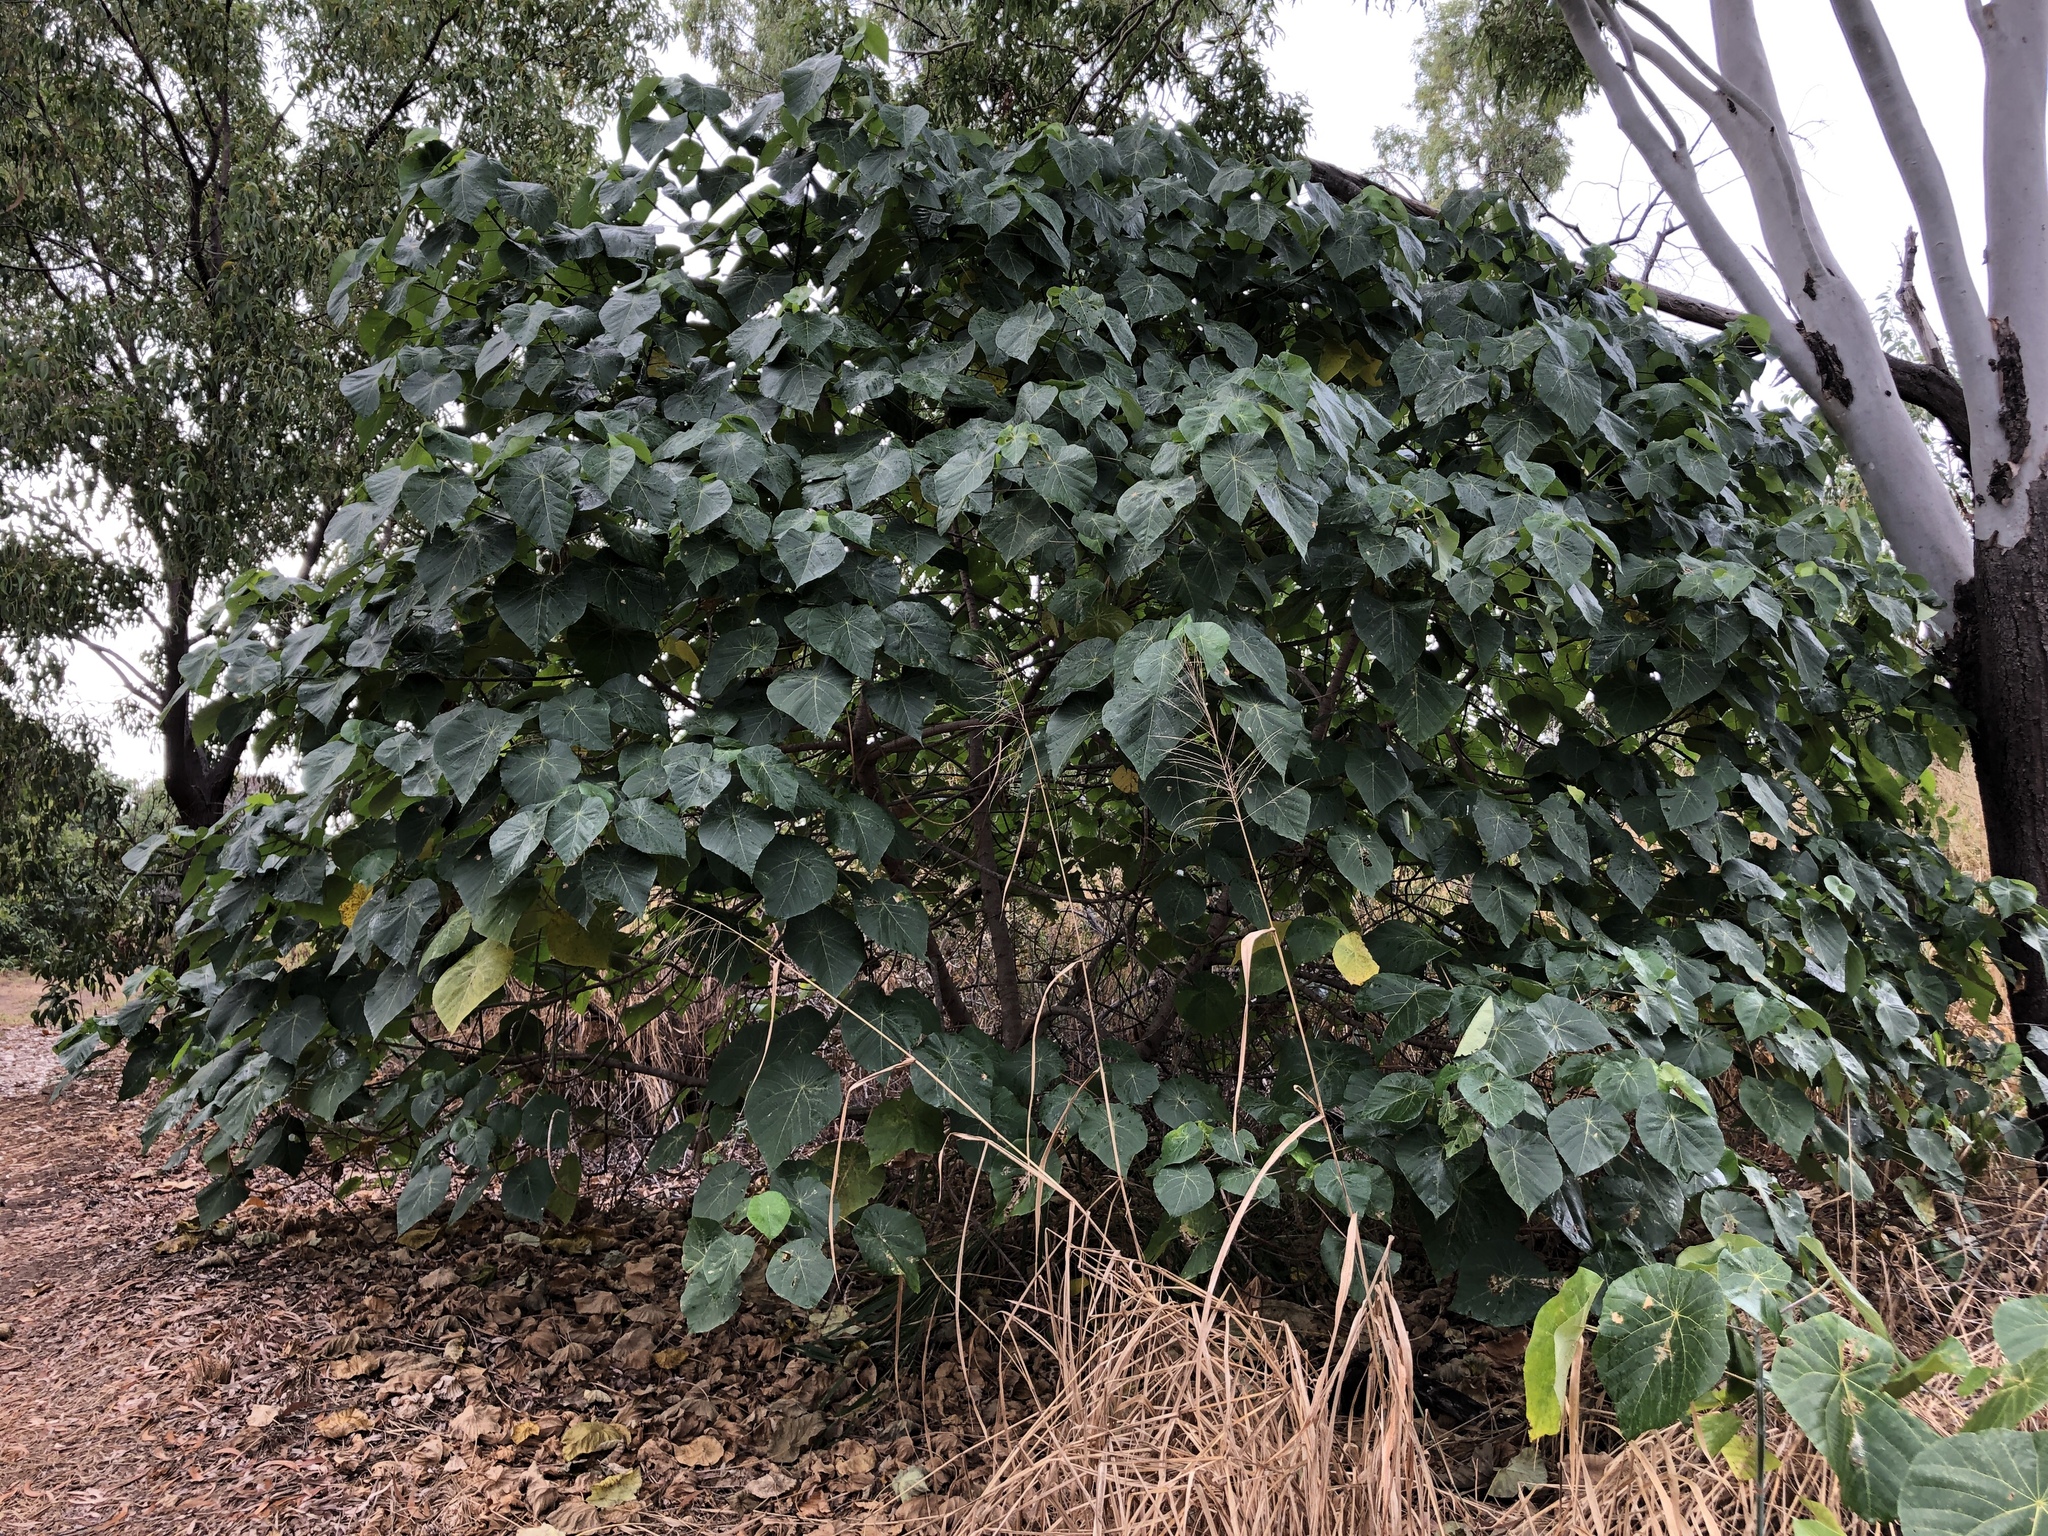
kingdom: Plantae
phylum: Tracheophyta
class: Magnoliopsida
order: Malpighiales
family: Euphorbiaceae
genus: Macaranga
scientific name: Macaranga tanarius
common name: Parasol leaf tree
